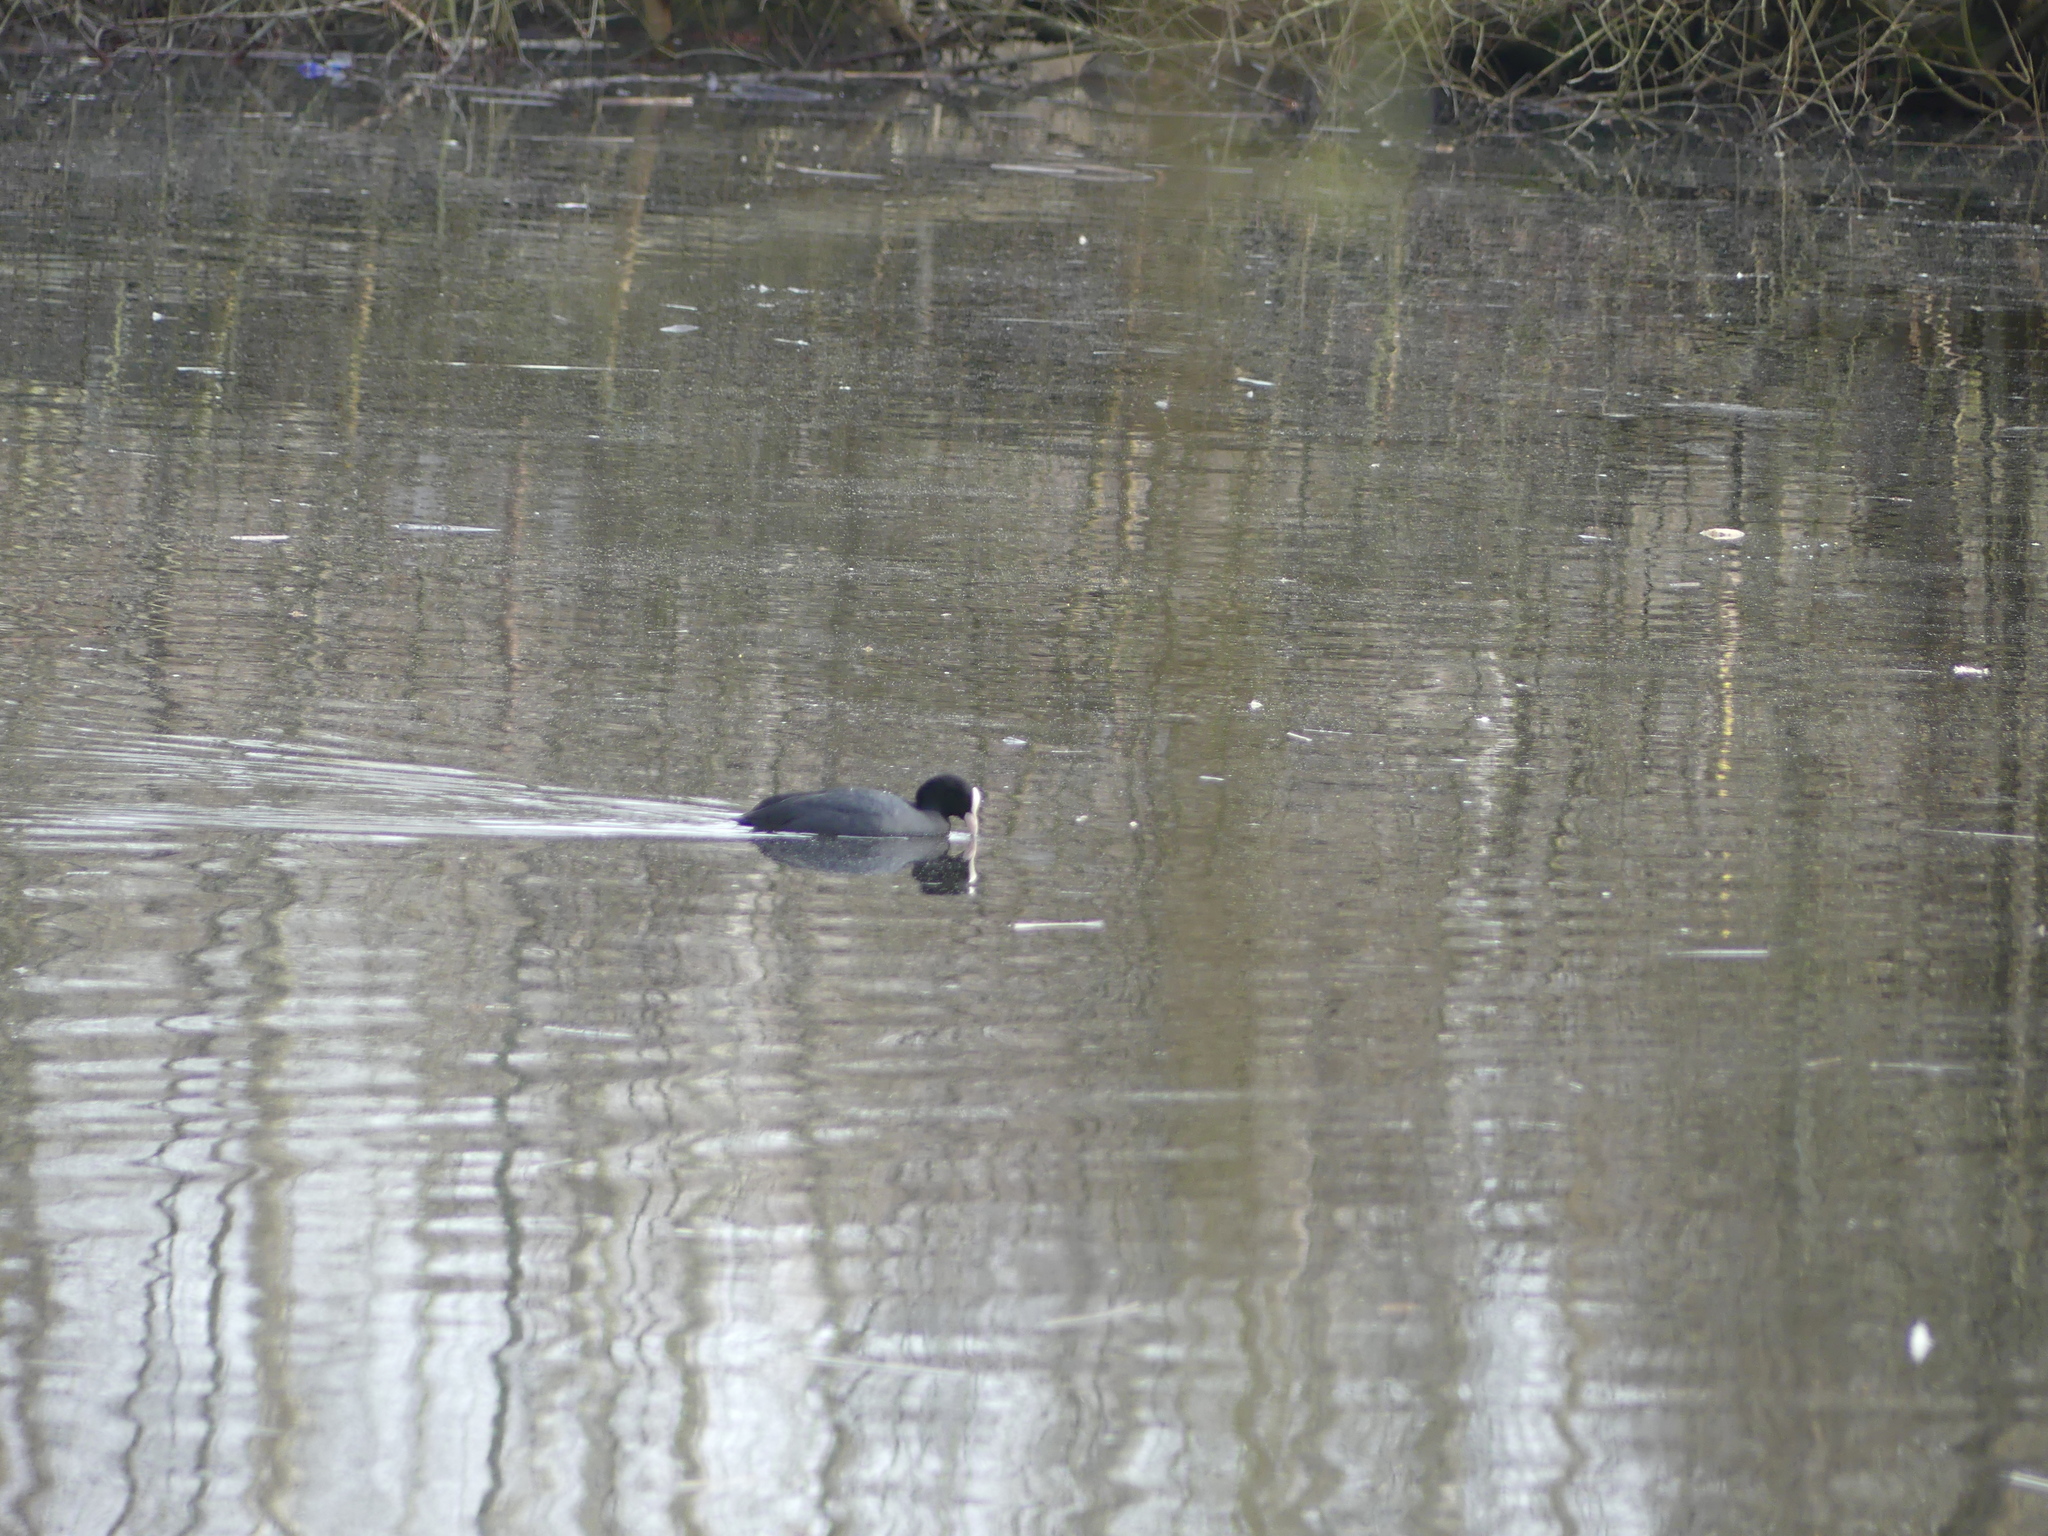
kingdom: Animalia
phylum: Chordata
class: Aves
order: Gruiformes
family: Rallidae
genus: Fulica
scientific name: Fulica atra
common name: Eurasian coot
